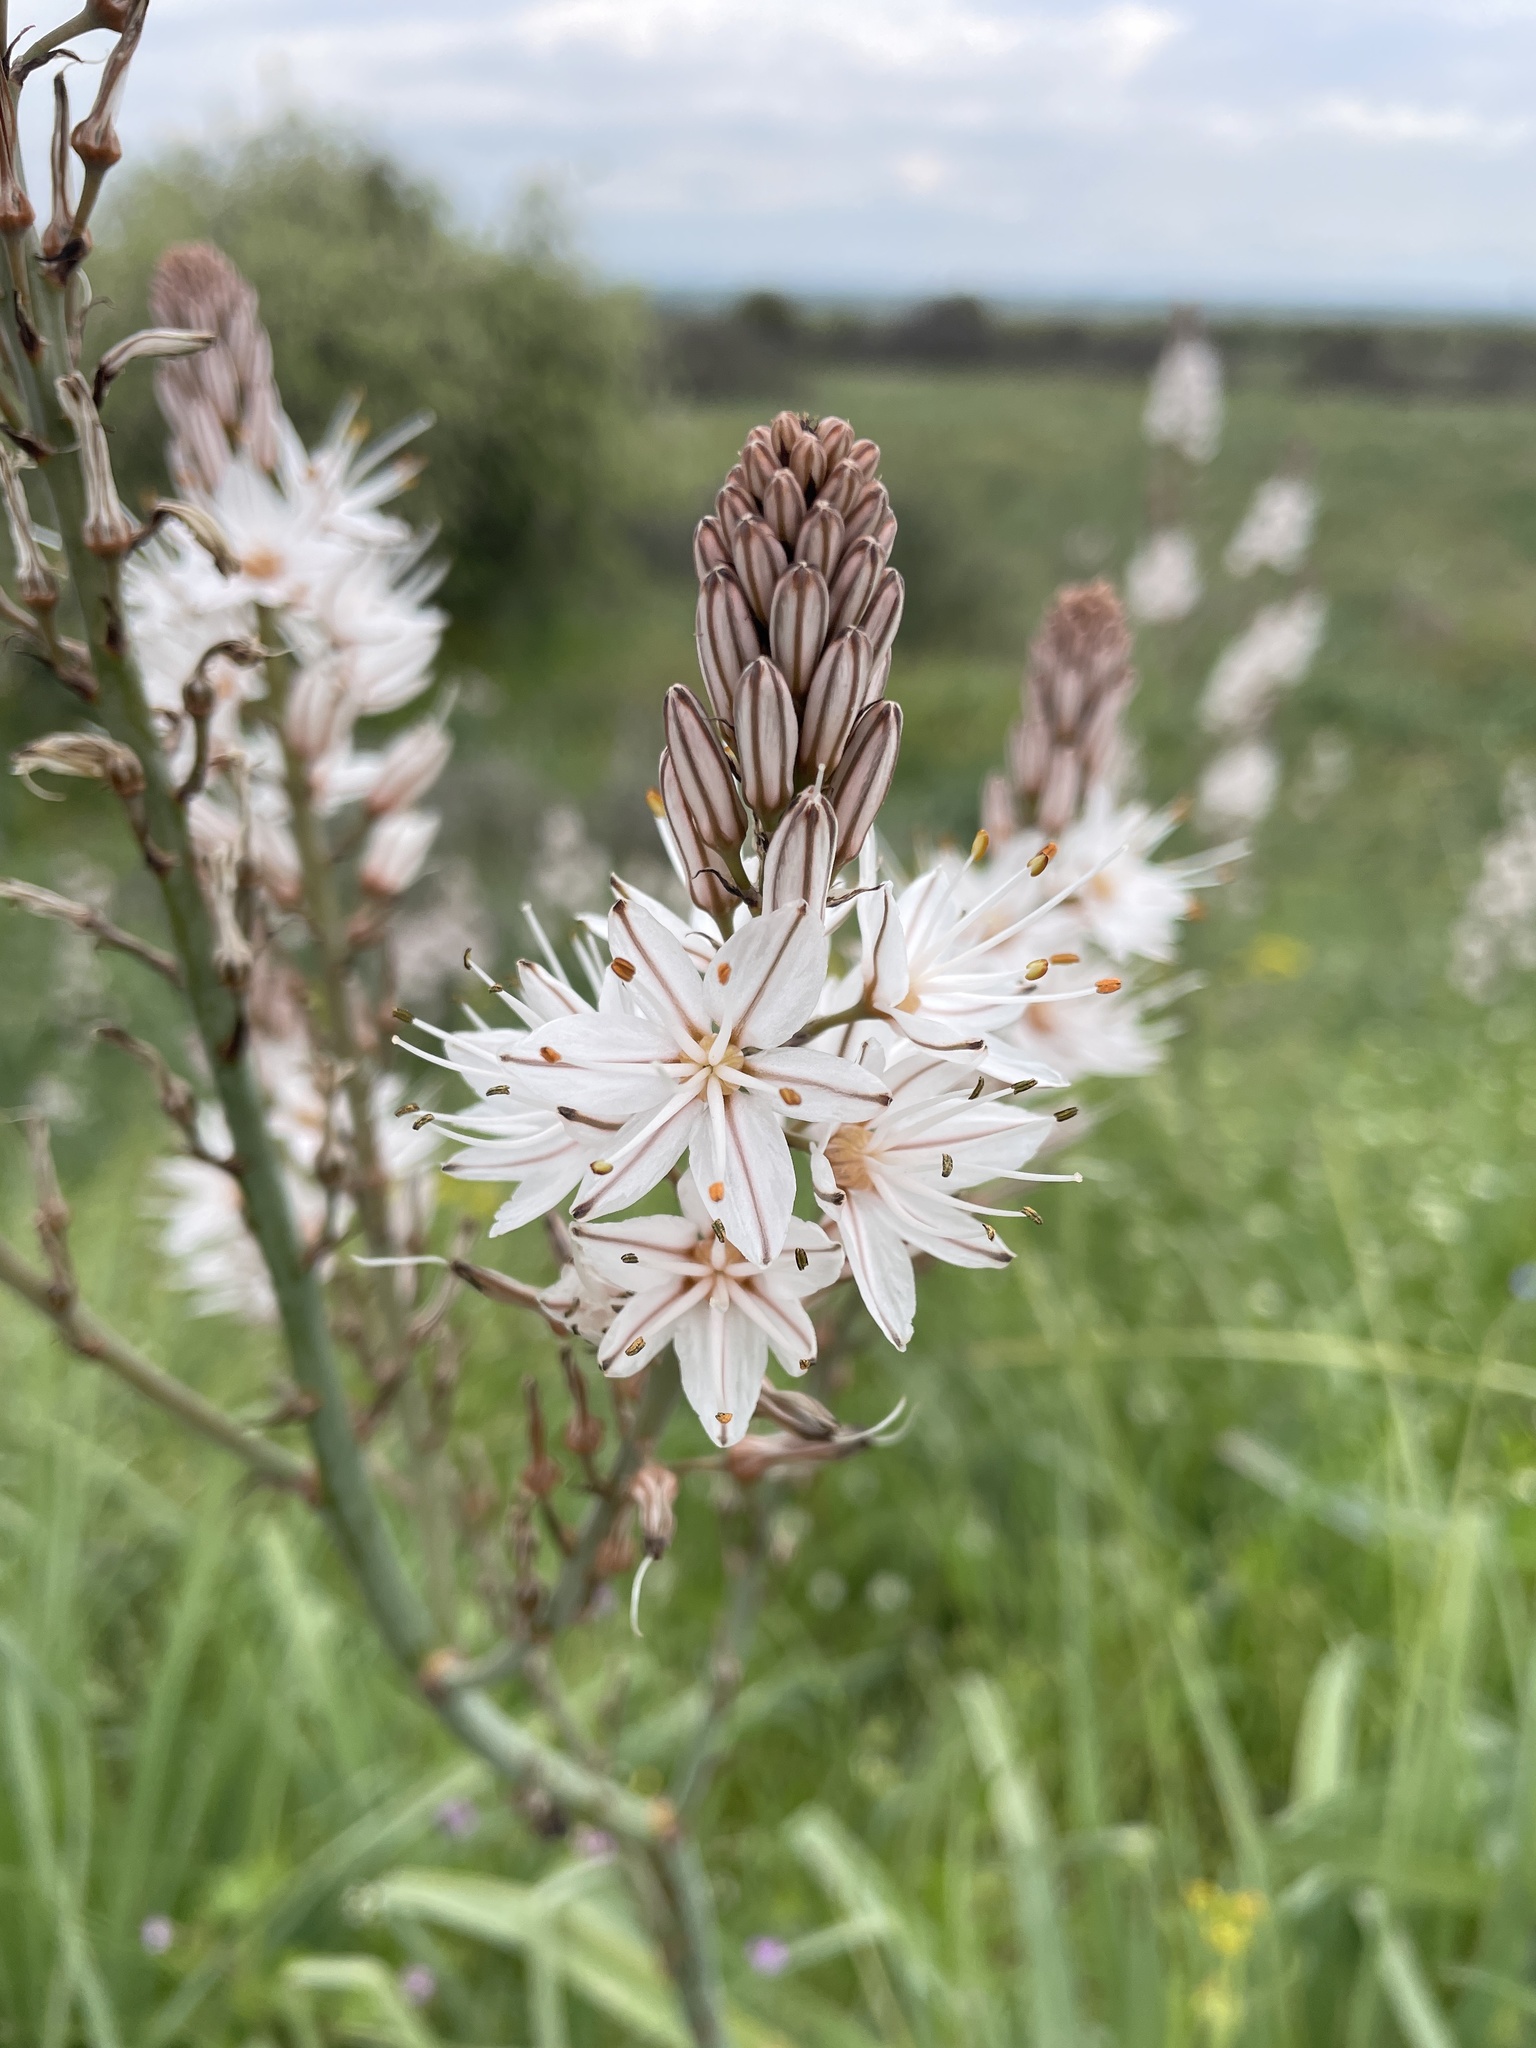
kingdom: Plantae
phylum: Tracheophyta
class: Liliopsida
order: Asparagales
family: Asphodelaceae
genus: Asphodelus
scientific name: Asphodelus ramosus
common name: Silverrod
